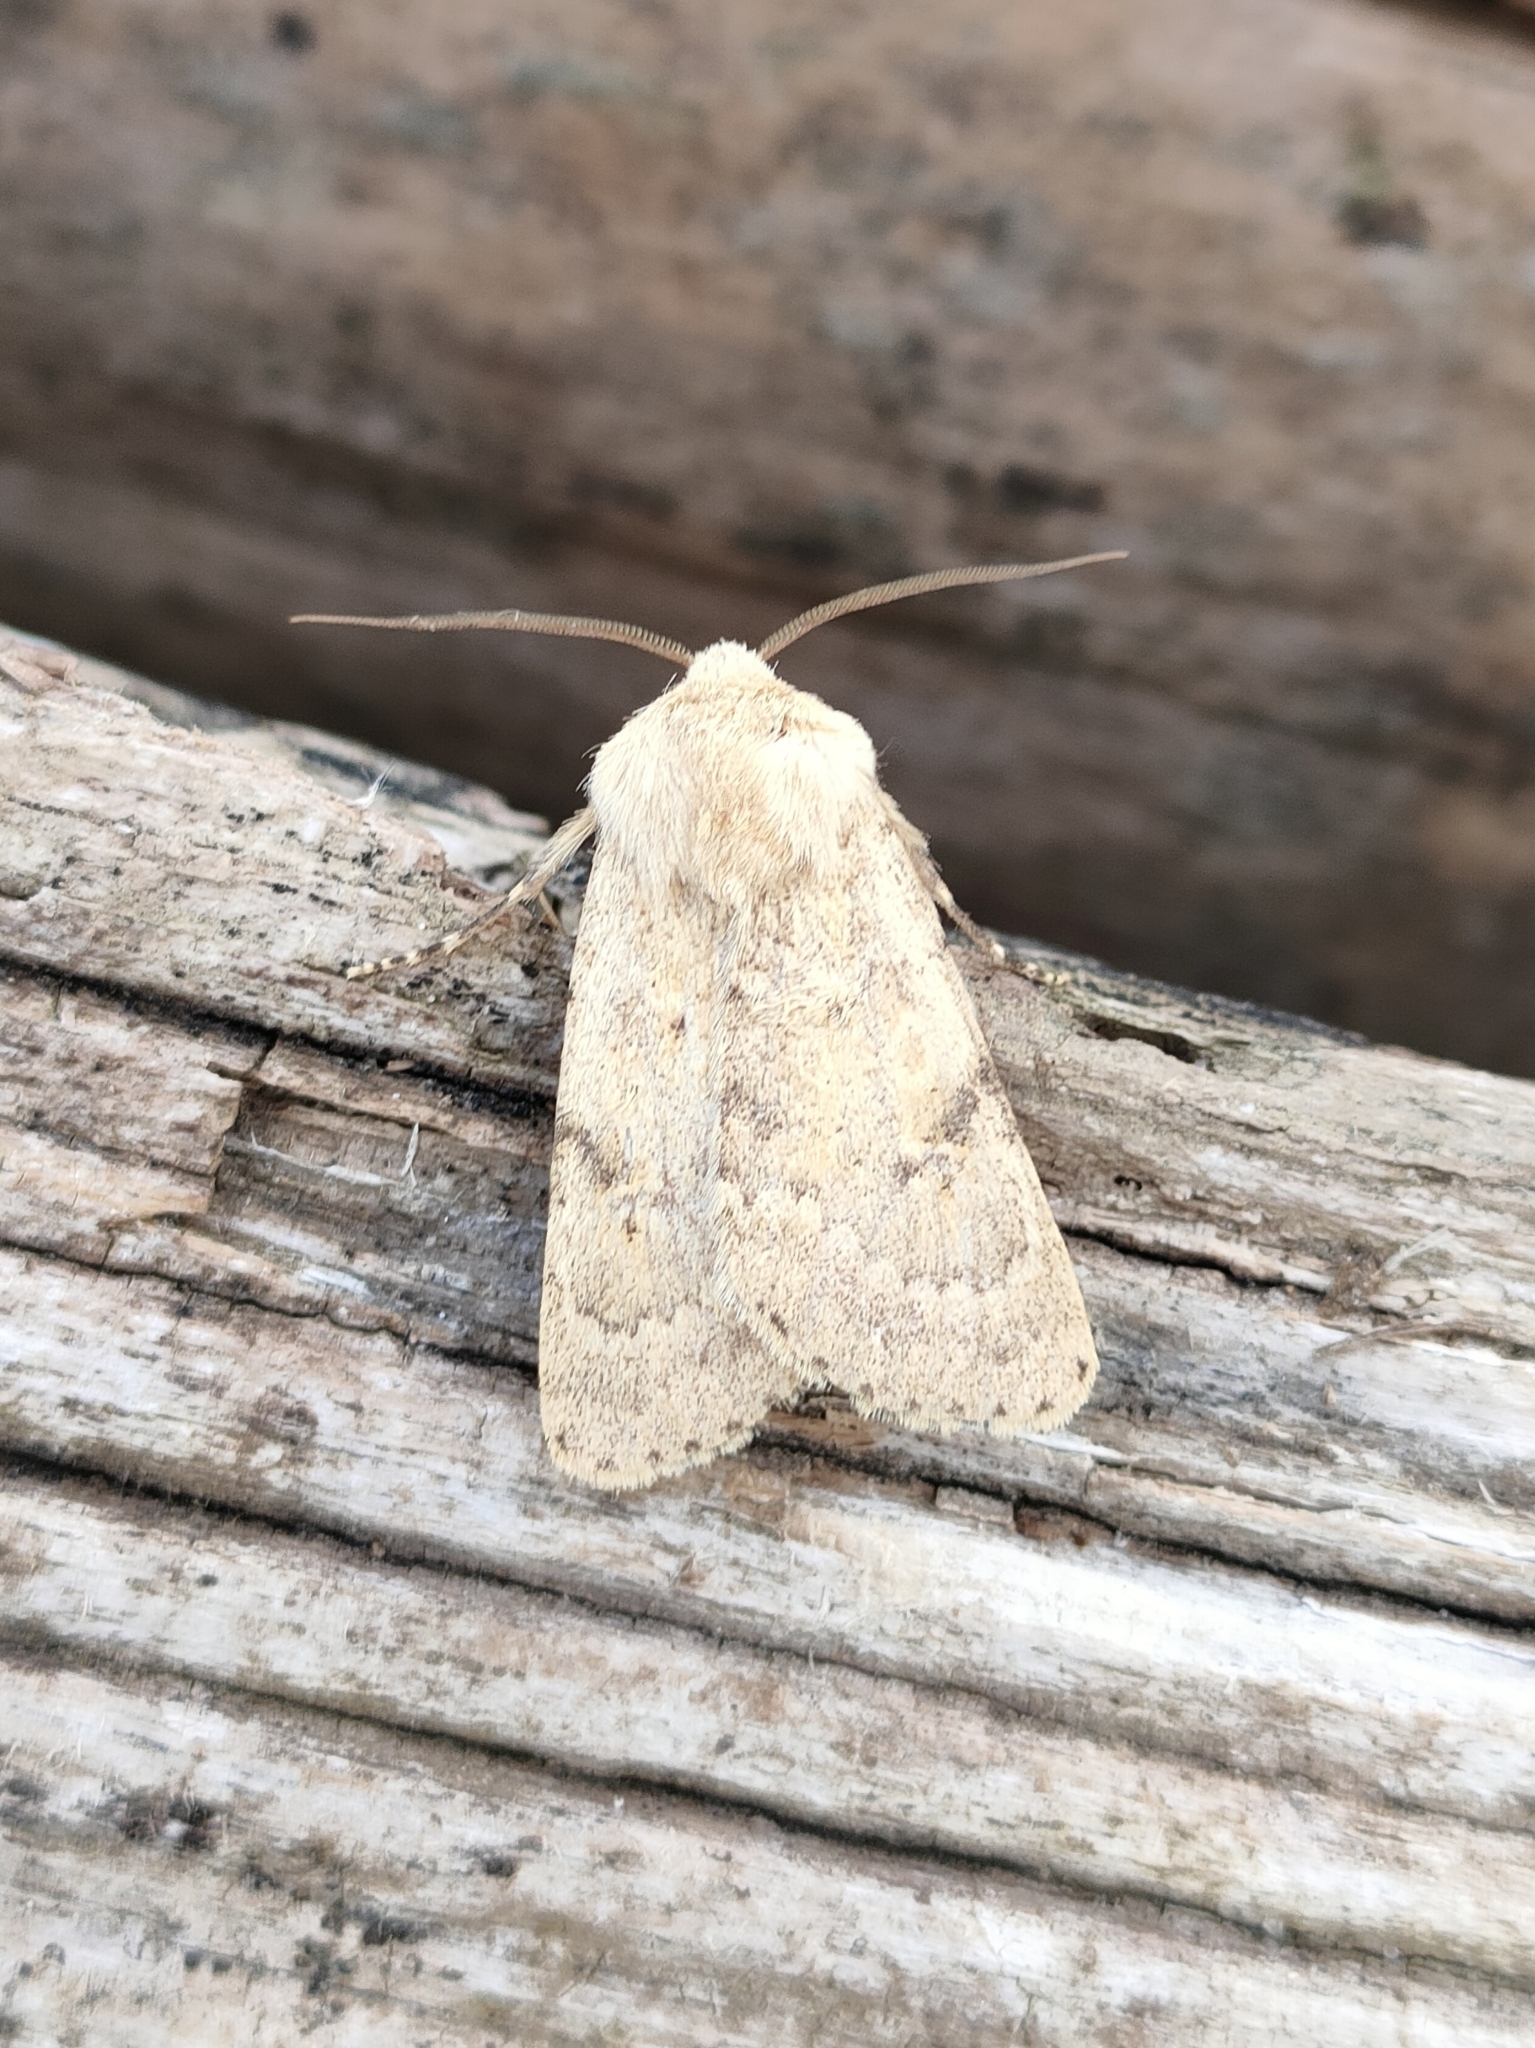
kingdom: Animalia
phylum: Arthropoda
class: Insecta
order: Lepidoptera
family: Noctuidae
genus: Dichagyris
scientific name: Dichagyris constanti
